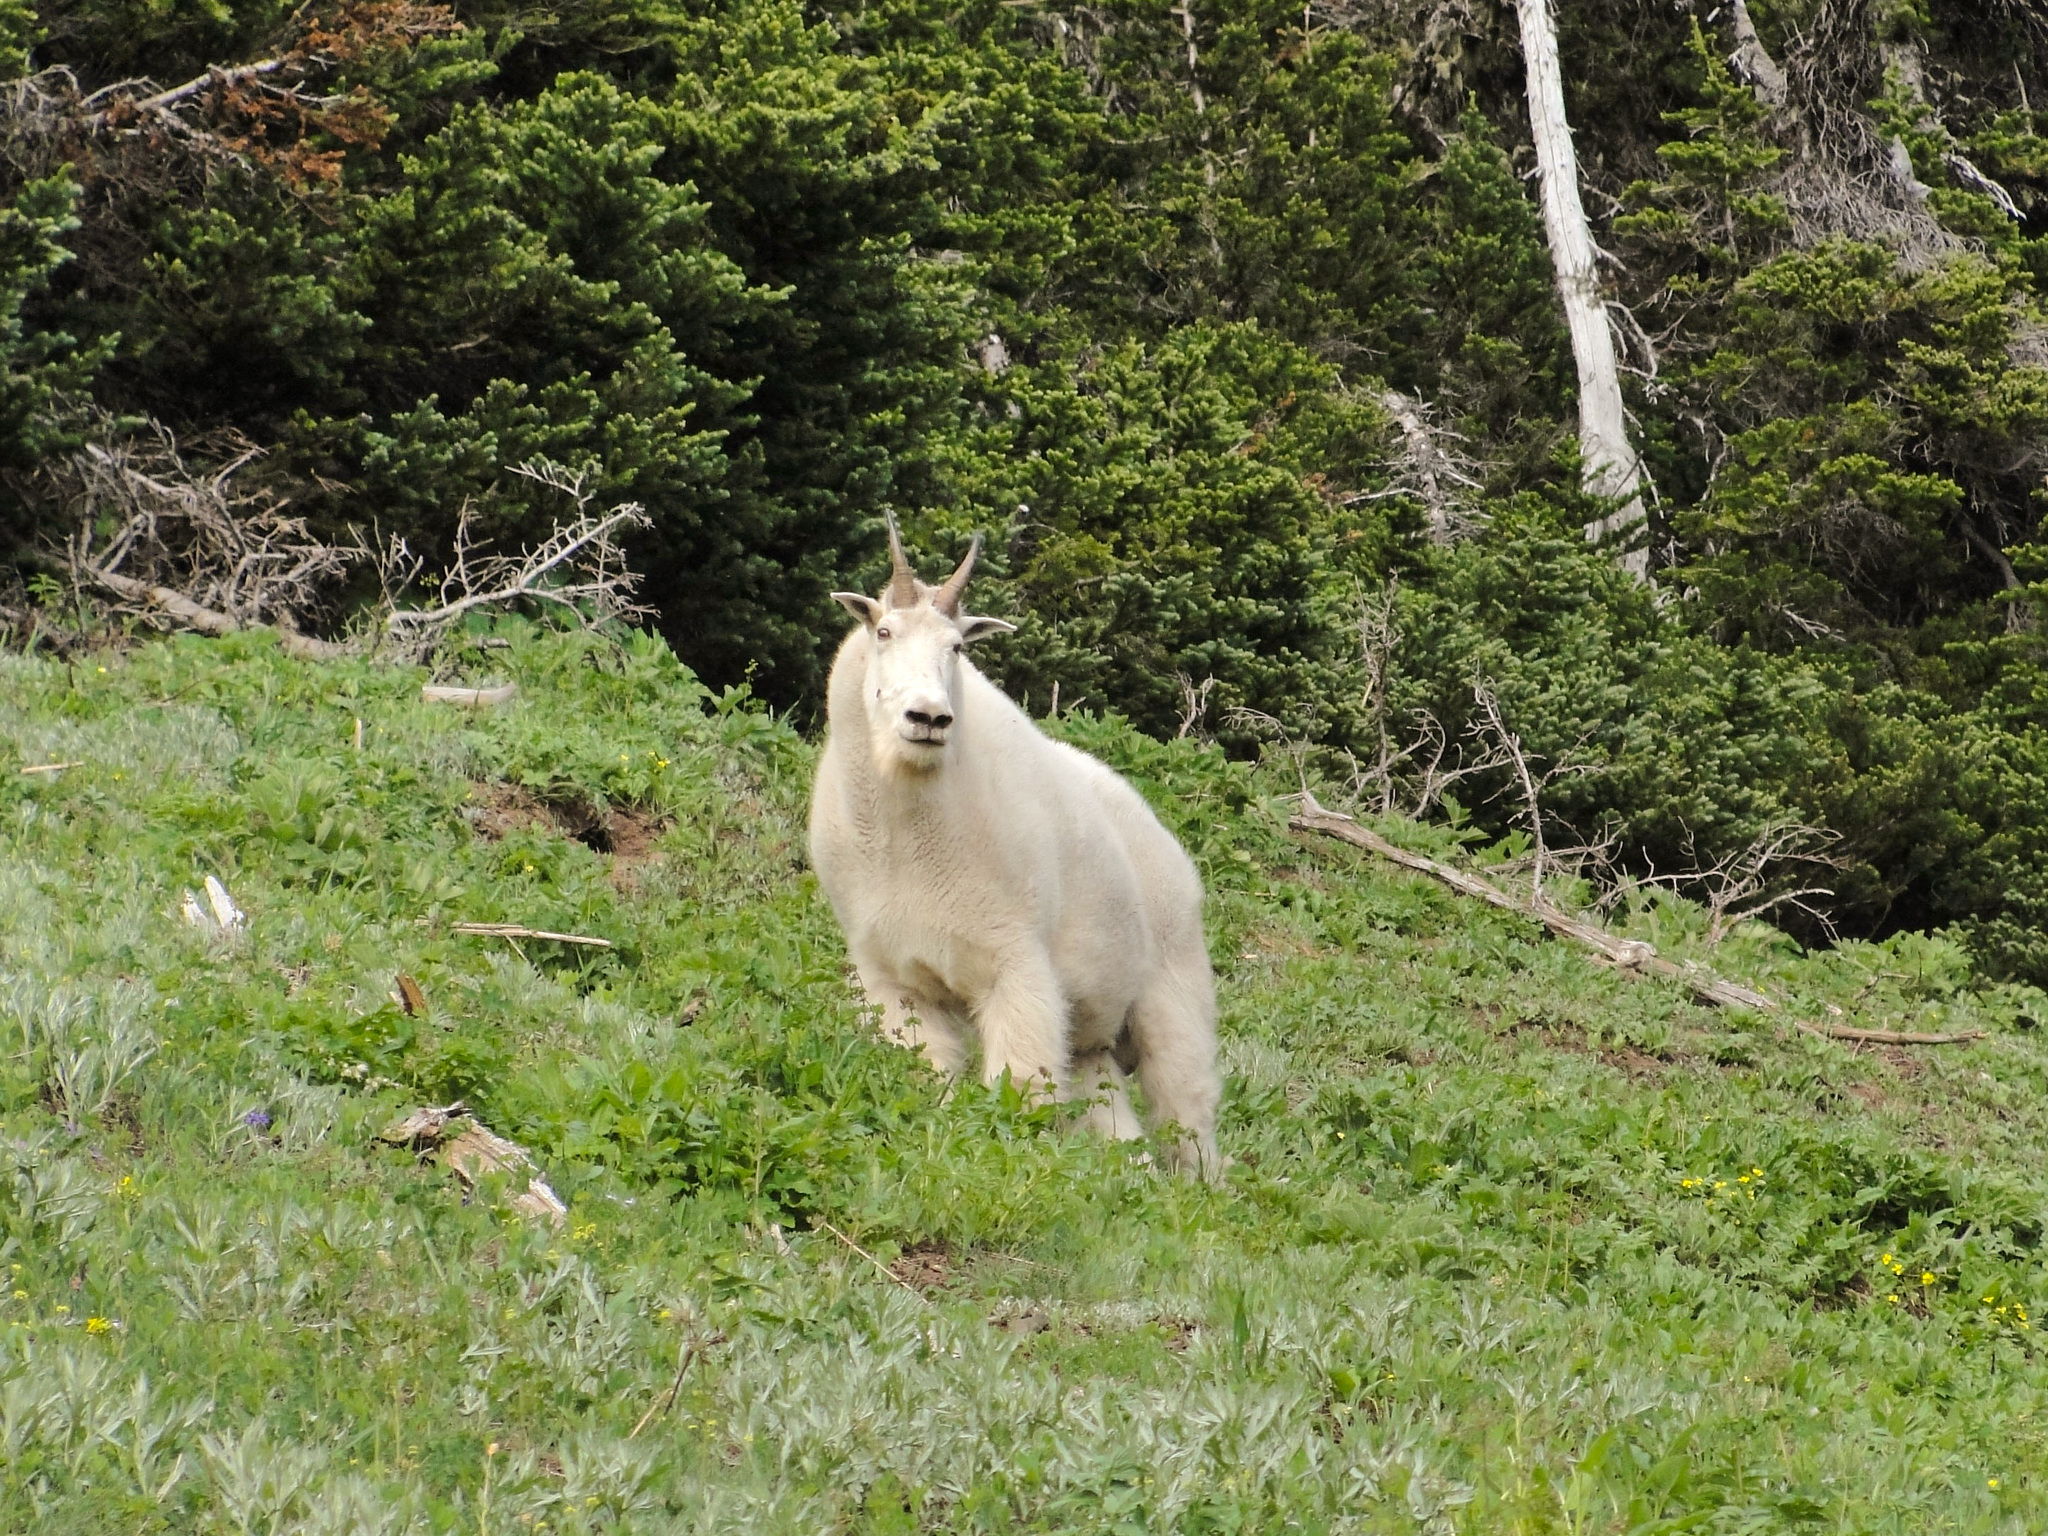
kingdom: Animalia
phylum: Chordata
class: Mammalia
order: Artiodactyla
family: Bovidae
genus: Oreamnos
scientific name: Oreamnos americanus
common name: Mountain goat
